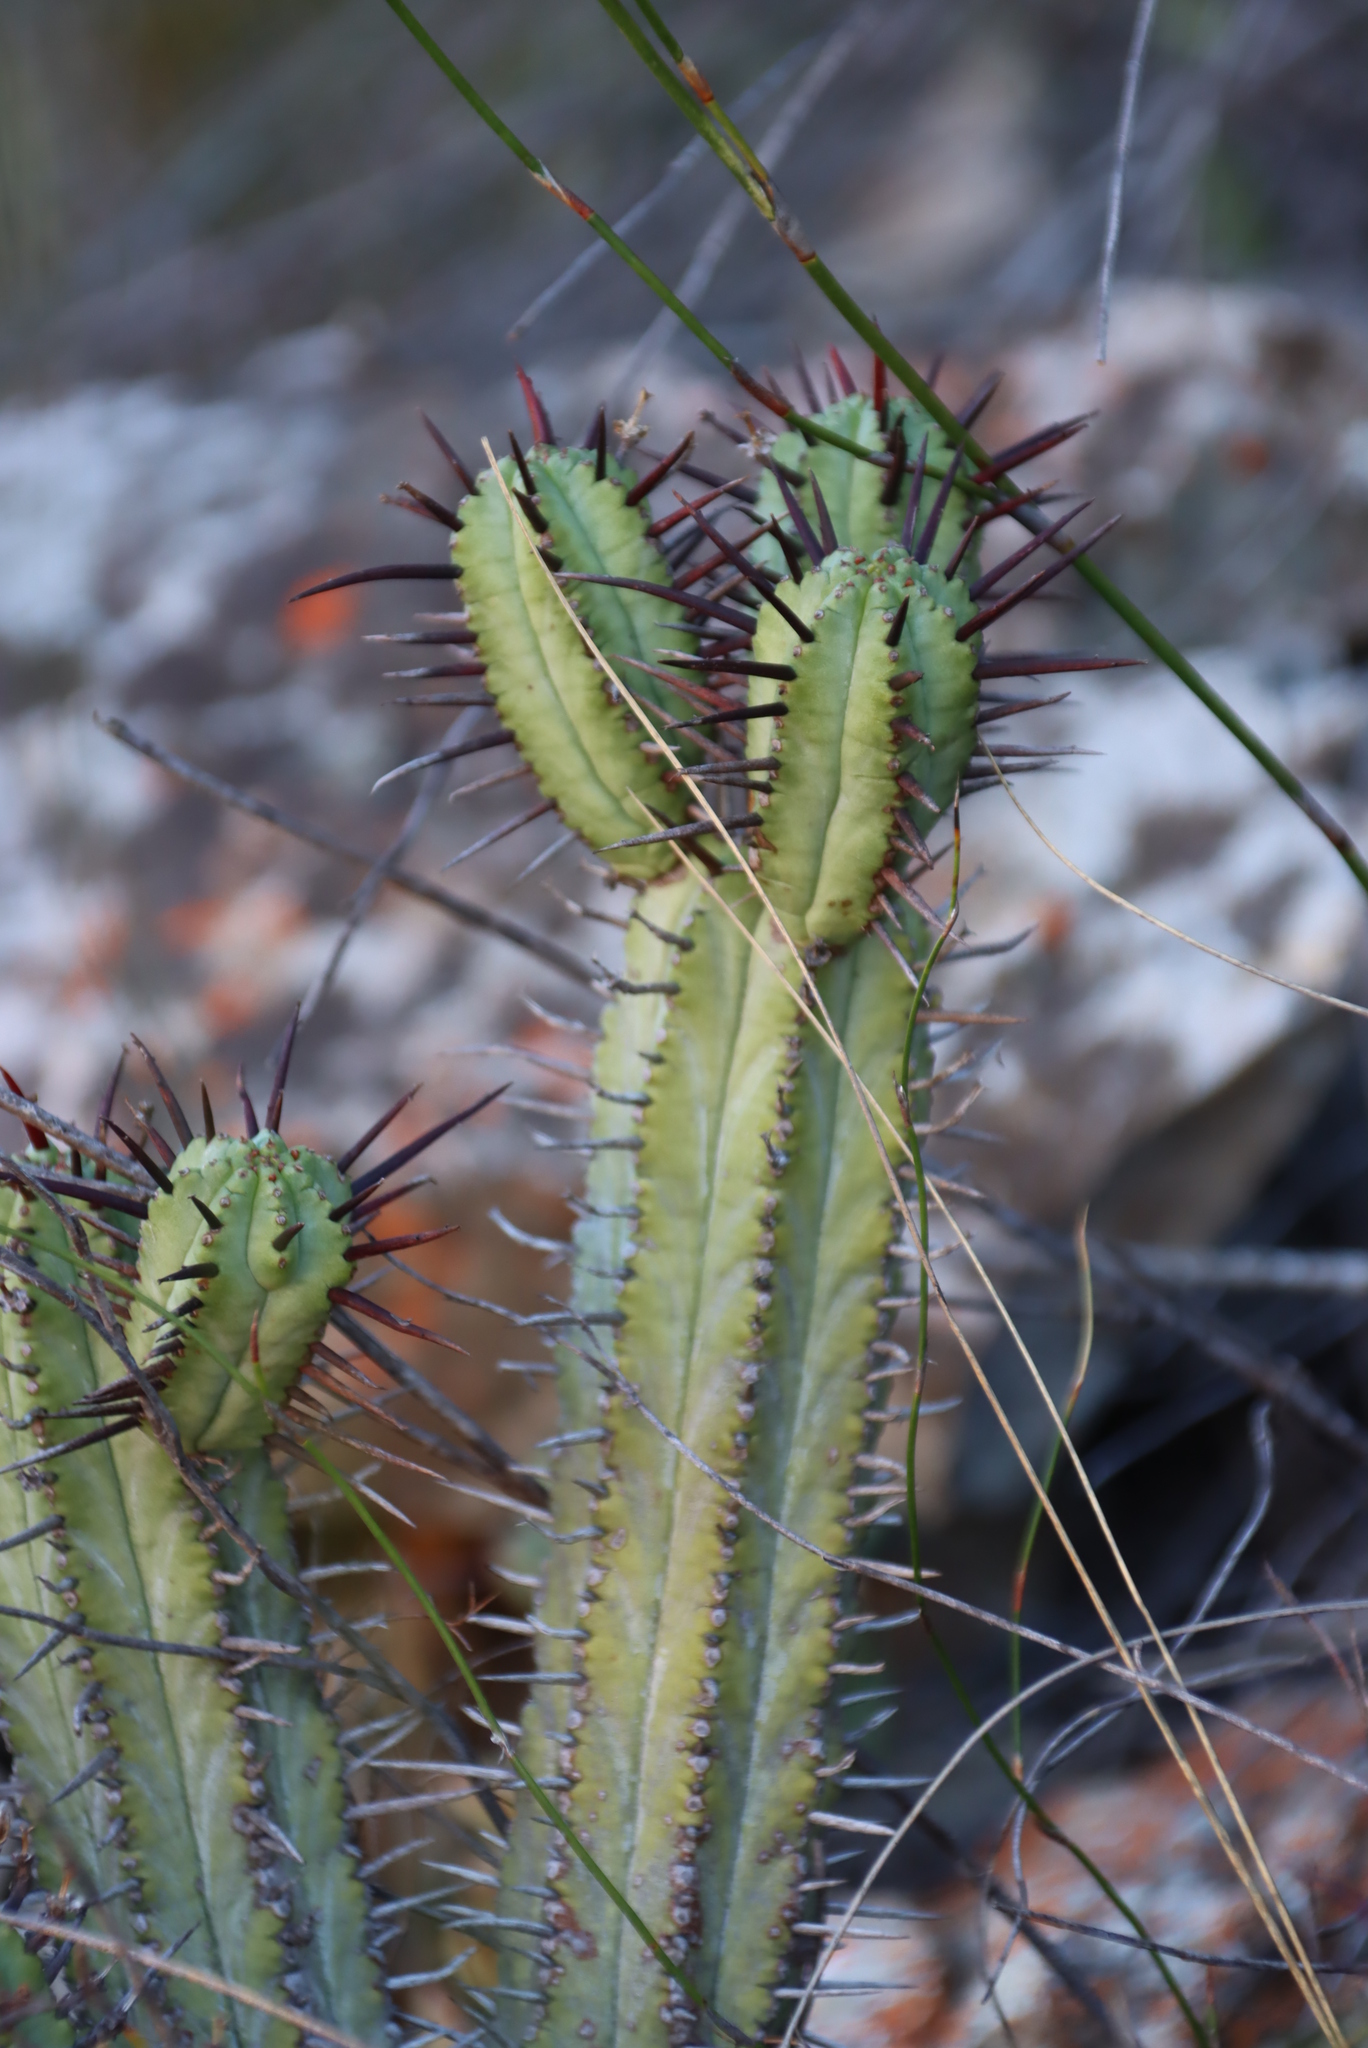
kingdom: Plantae
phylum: Tracheophyta
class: Magnoliopsida
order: Malpighiales
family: Euphorbiaceae
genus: Euphorbia
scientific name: Euphorbia heptagona
